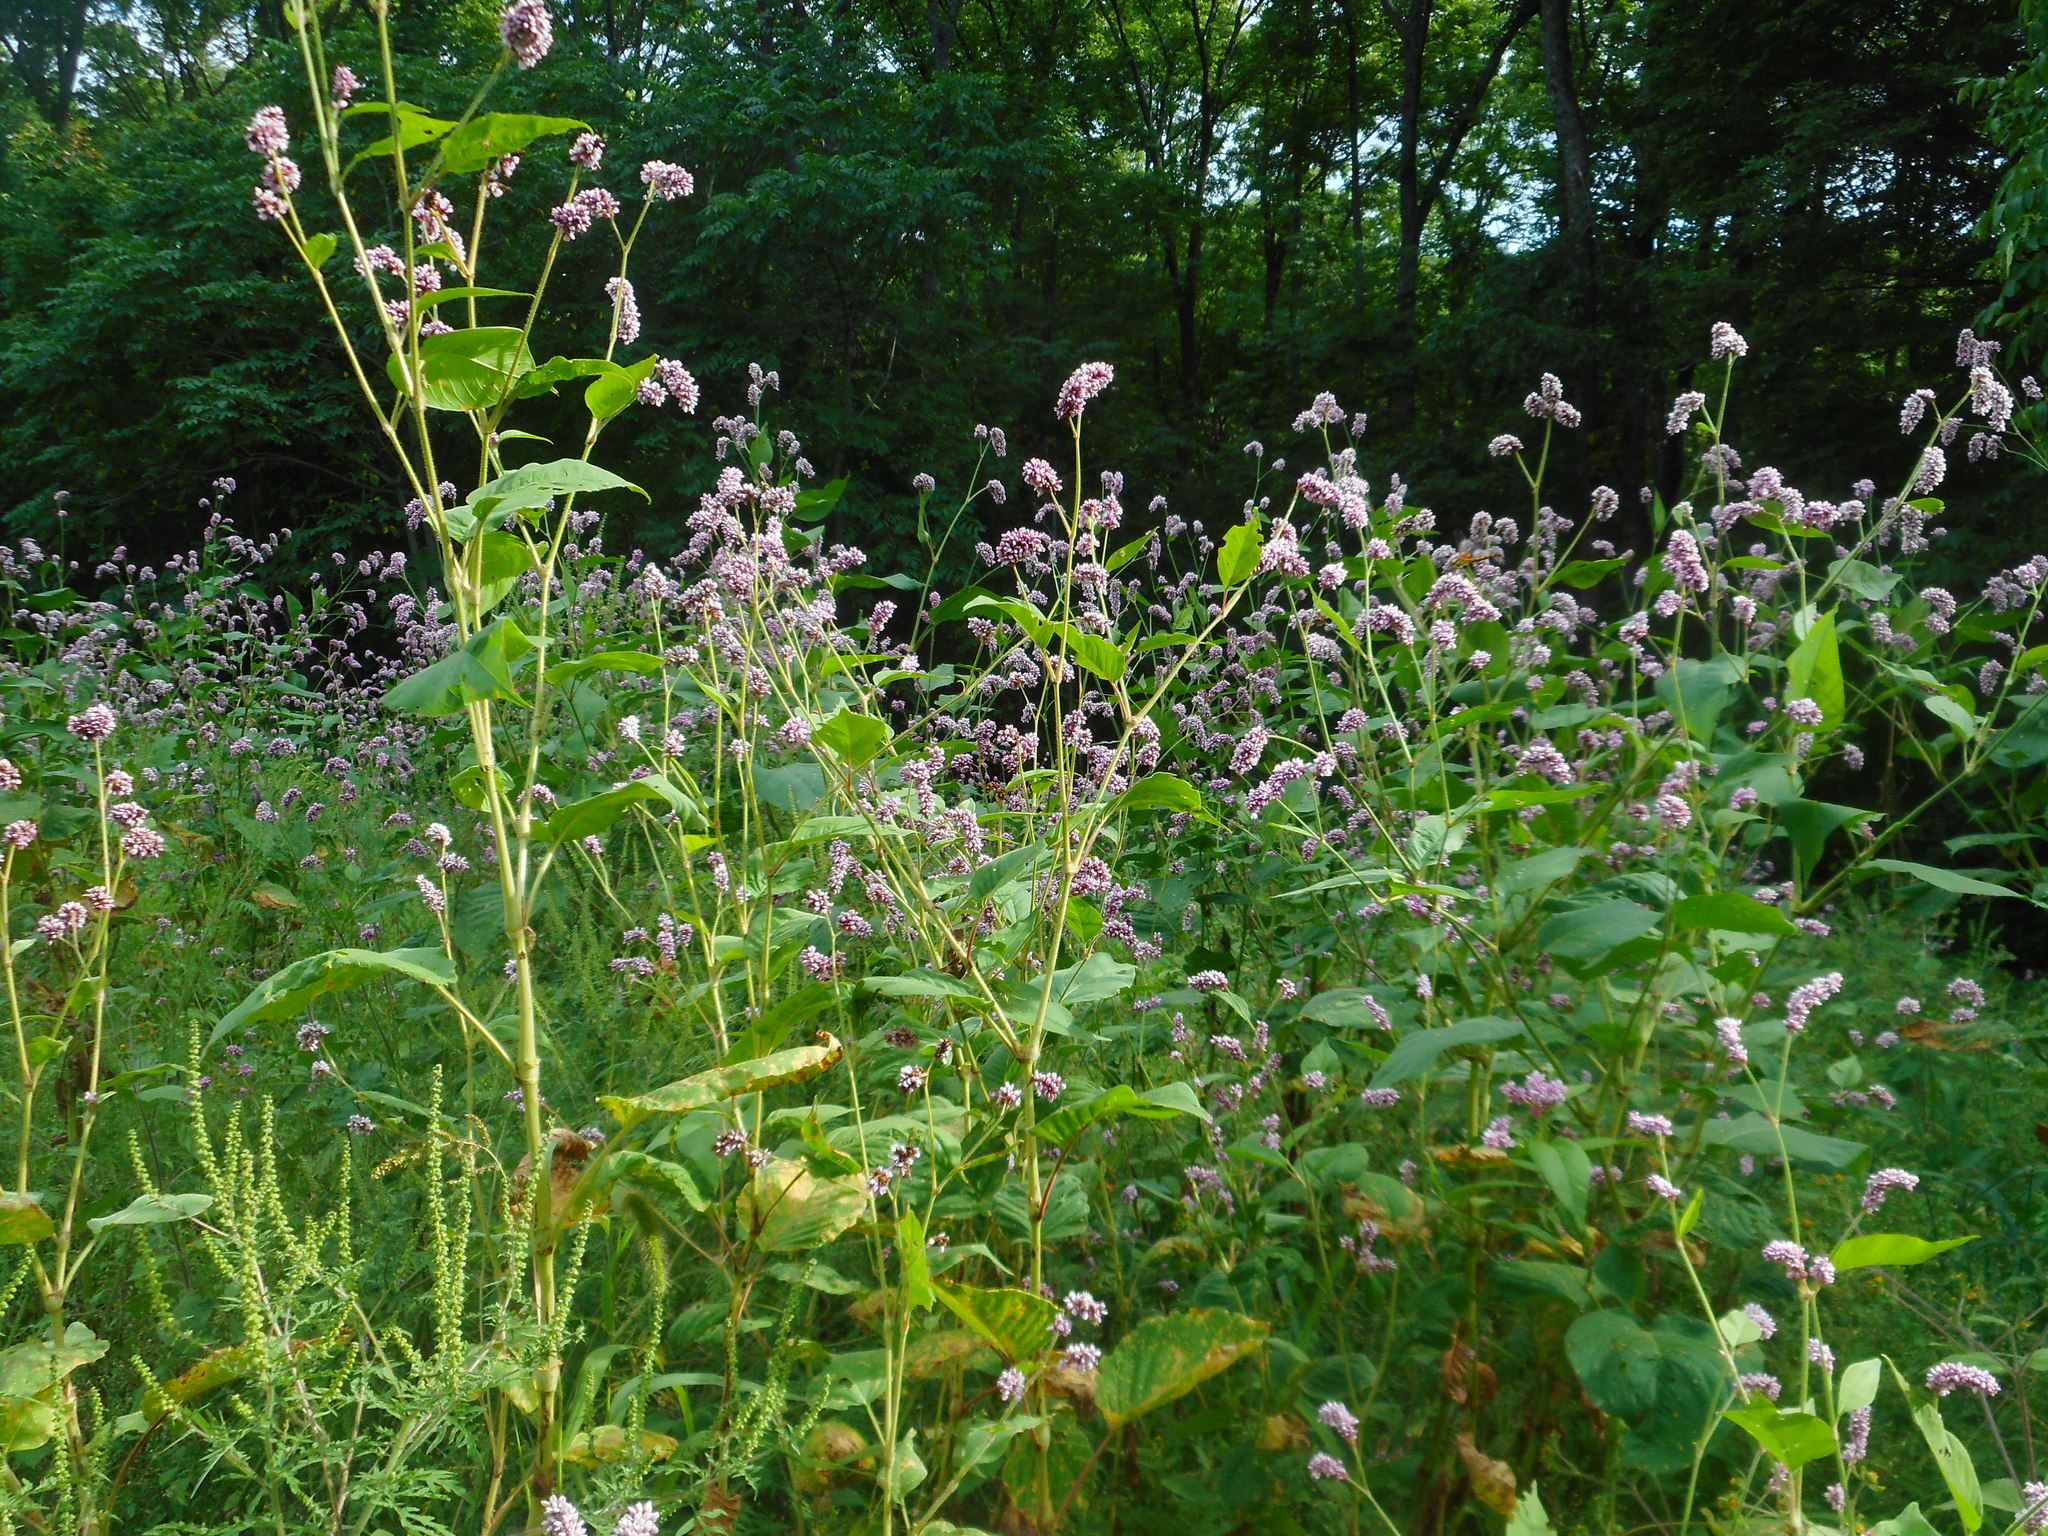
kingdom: Plantae
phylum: Tracheophyta
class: Magnoliopsida
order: Caryophyllales
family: Polygonaceae
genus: Persicaria
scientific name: Persicaria orientalis
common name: Kiss-me-over-the-garden-gate
